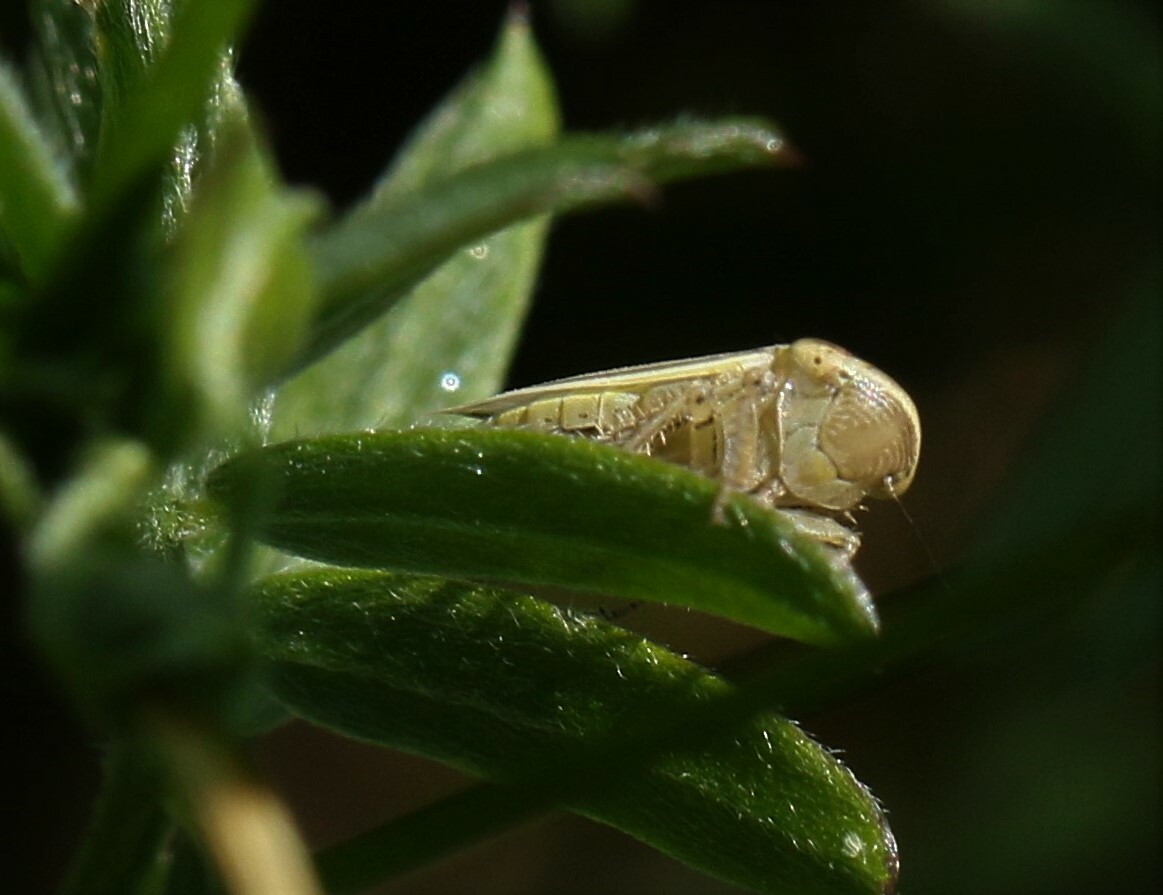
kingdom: Animalia
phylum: Arthropoda
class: Insecta
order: Hemiptera
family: Cicadellidae
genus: Athysanus
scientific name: Athysanus argentarius
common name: Silver leafhopper
